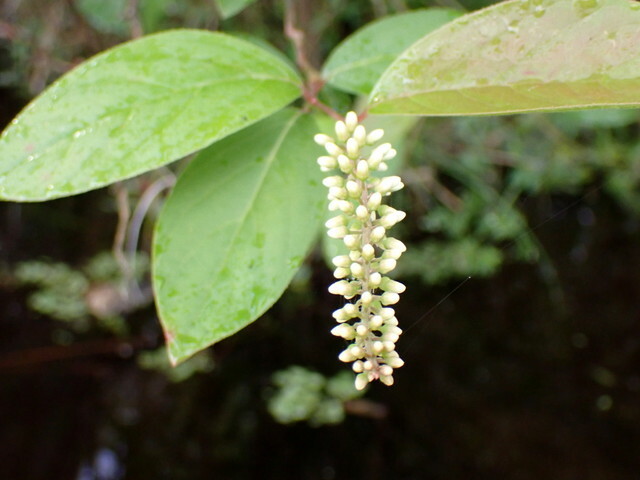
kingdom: Plantae
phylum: Tracheophyta
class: Magnoliopsida
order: Saxifragales
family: Iteaceae
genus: Itea
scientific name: Itea virginica
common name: Sweetspire
